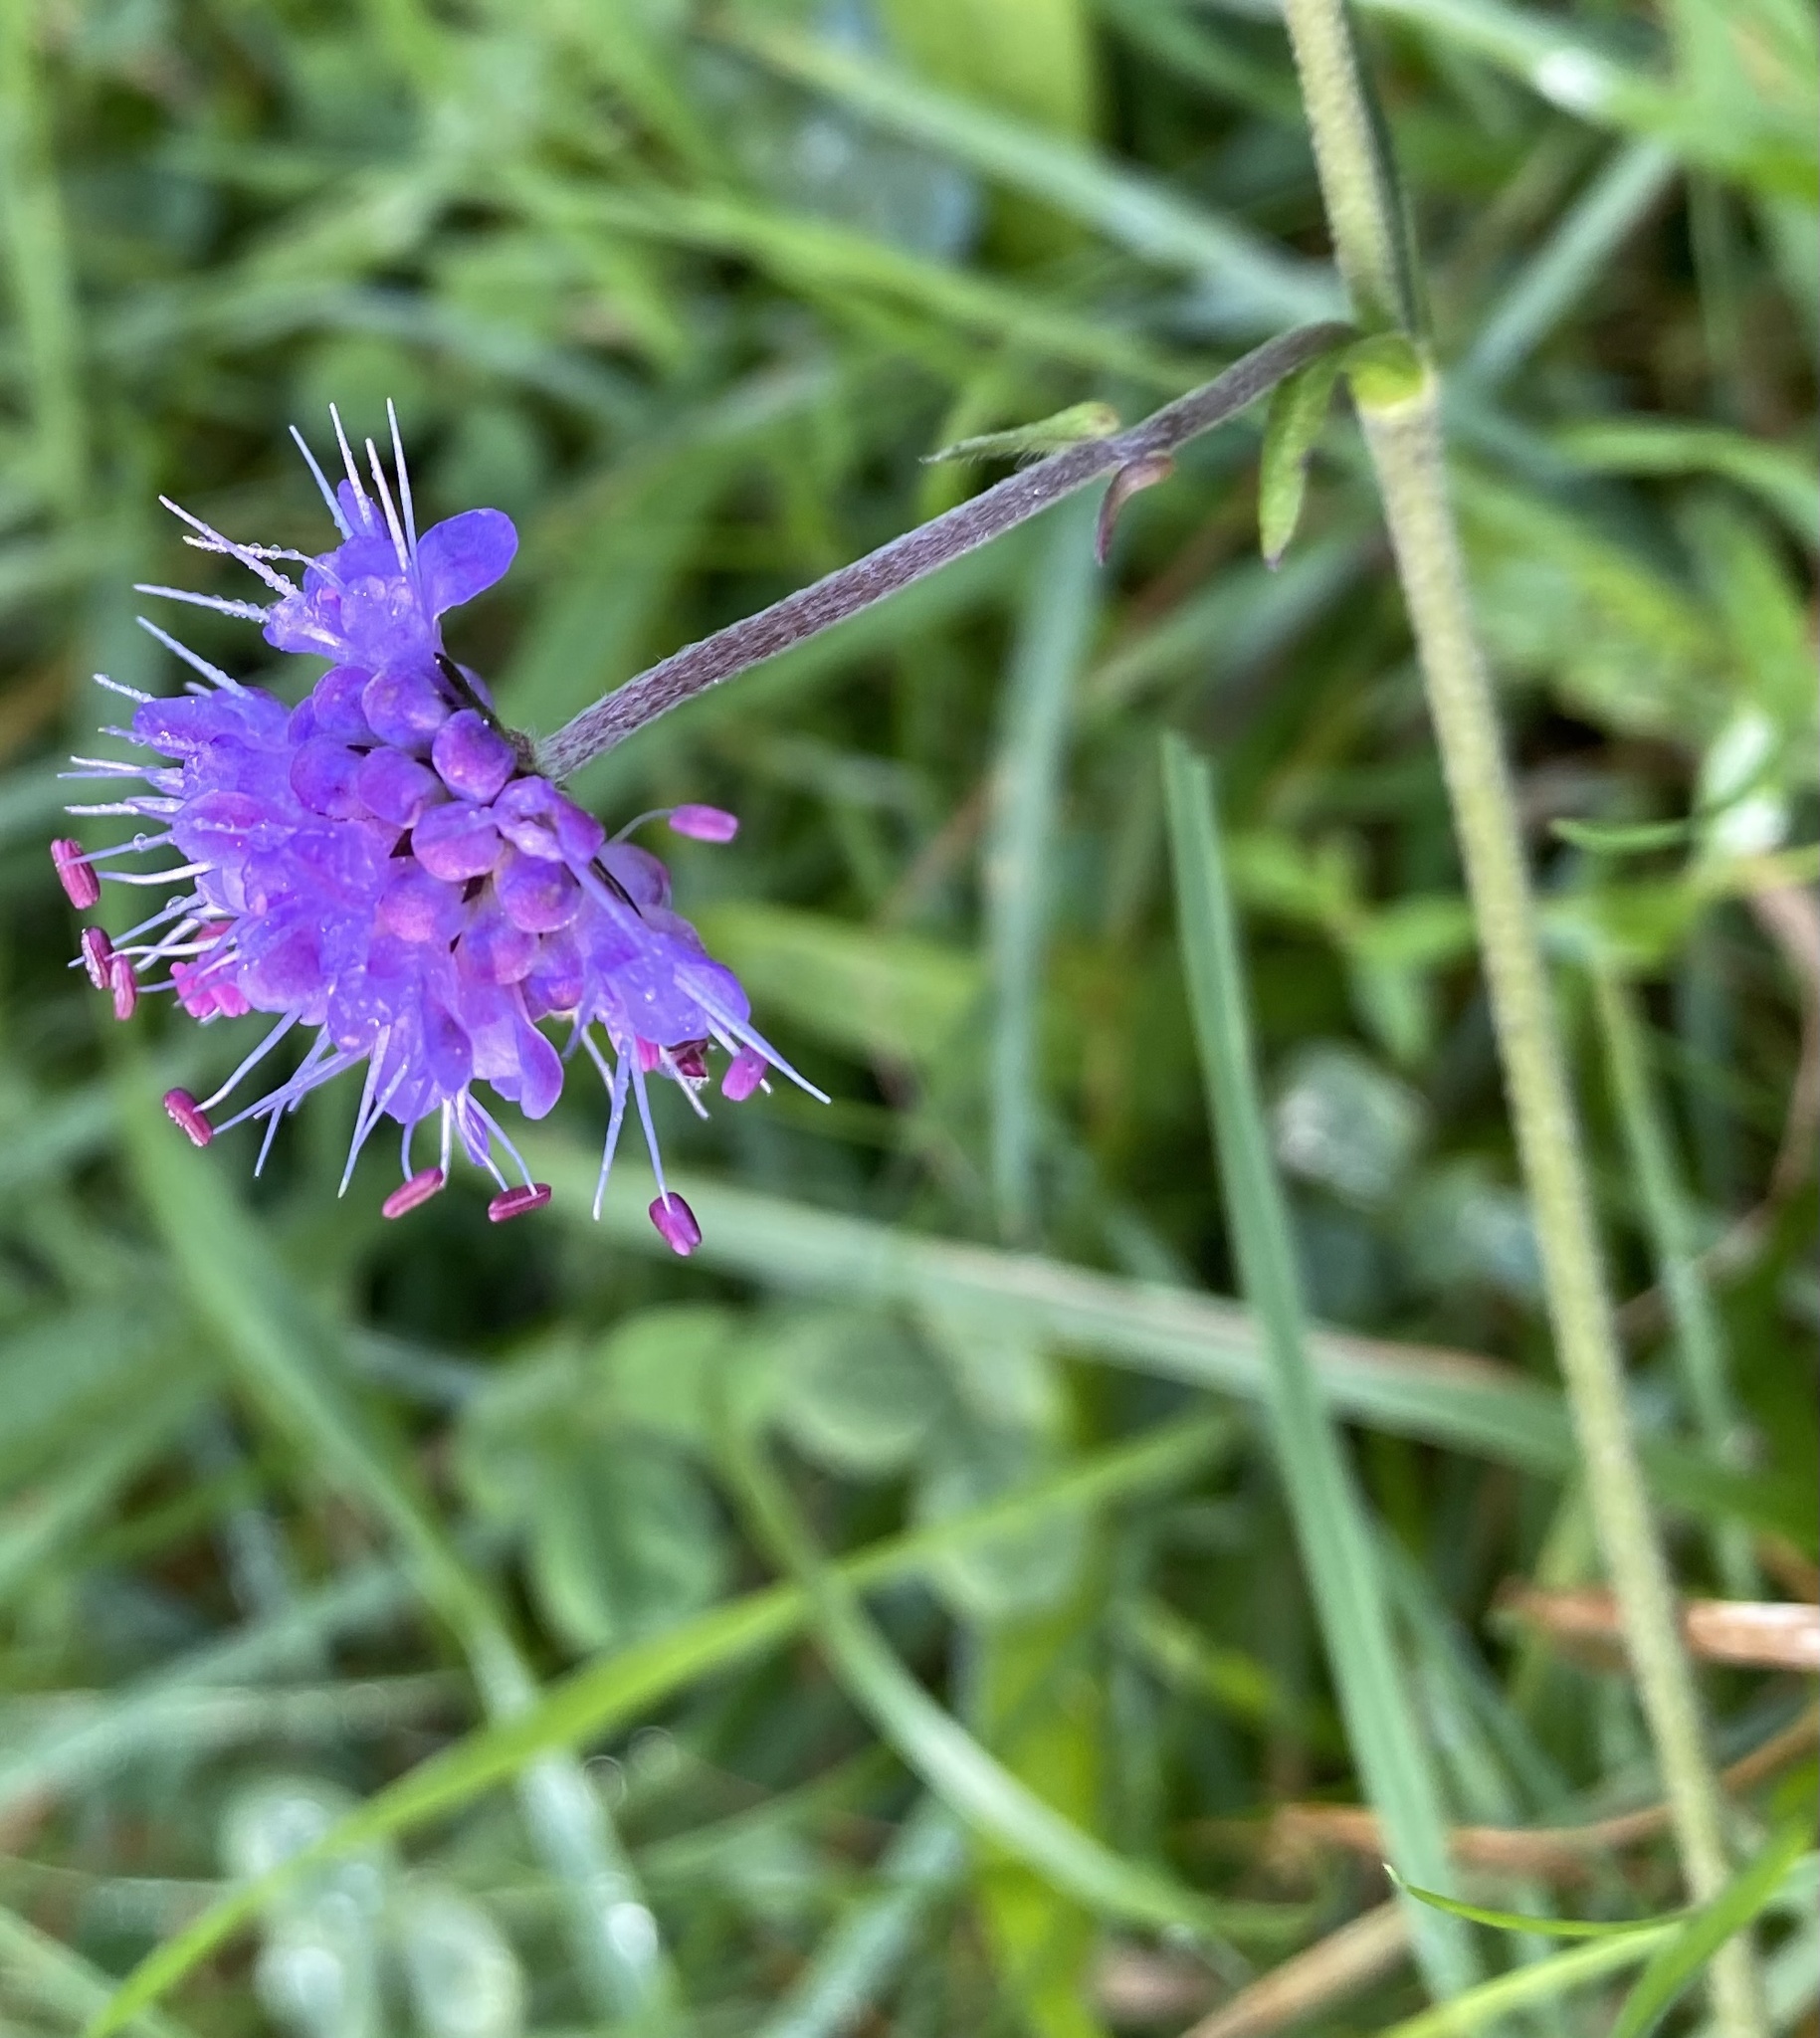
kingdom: Plantae
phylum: Tracheophyta
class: Magnoliopsida
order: Dipsacales
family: Caprifoliaceae
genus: Succisa
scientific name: Succisa pratensis
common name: Devil's-bit
